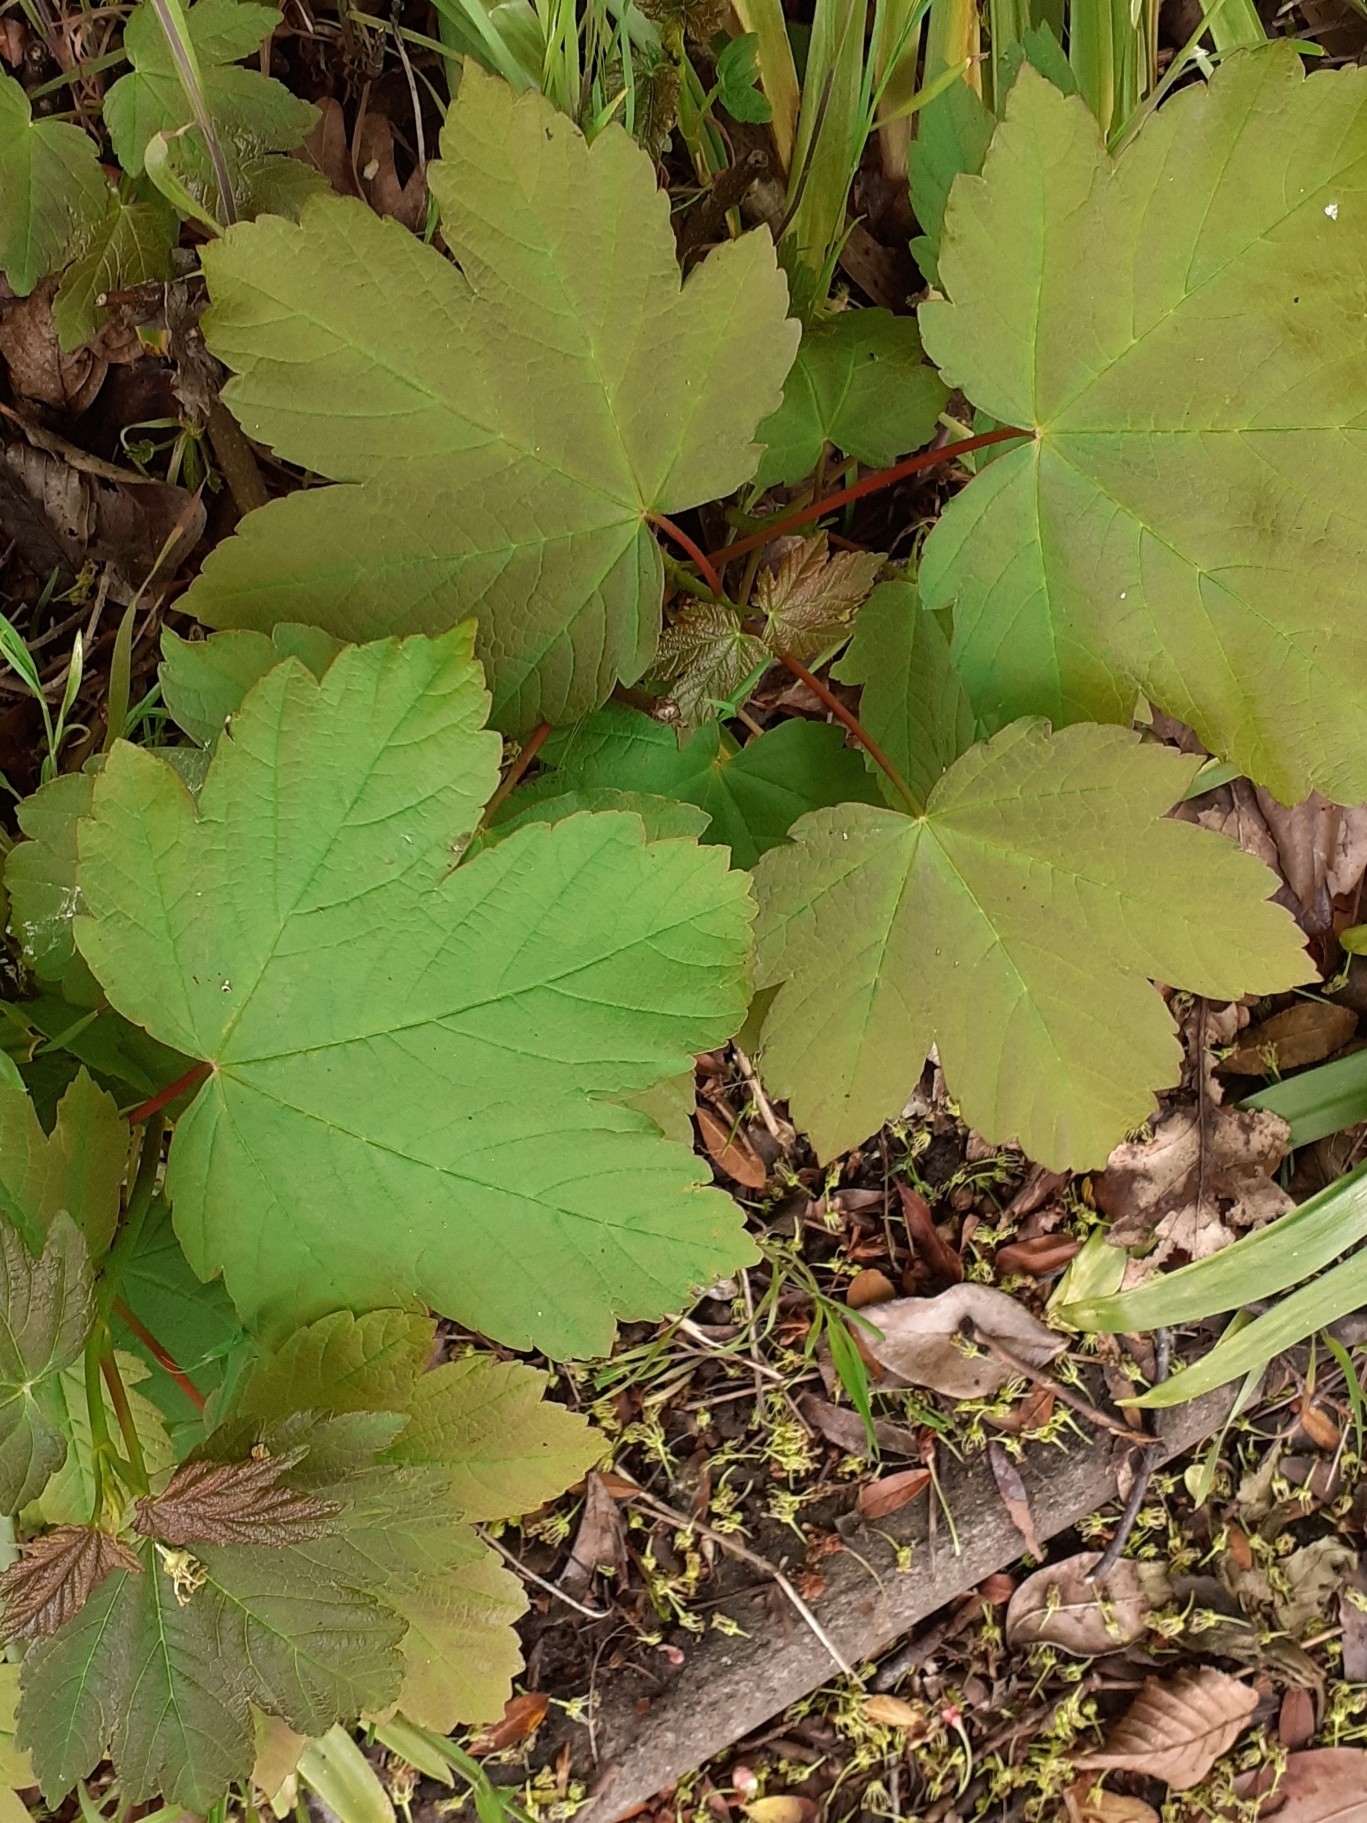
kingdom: Plantae
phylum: Tracheophyta
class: Magnoliopsida
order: Sapindales
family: Sapindaceae
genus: Acer
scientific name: Acer pseudoplatanus
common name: Sycamore
